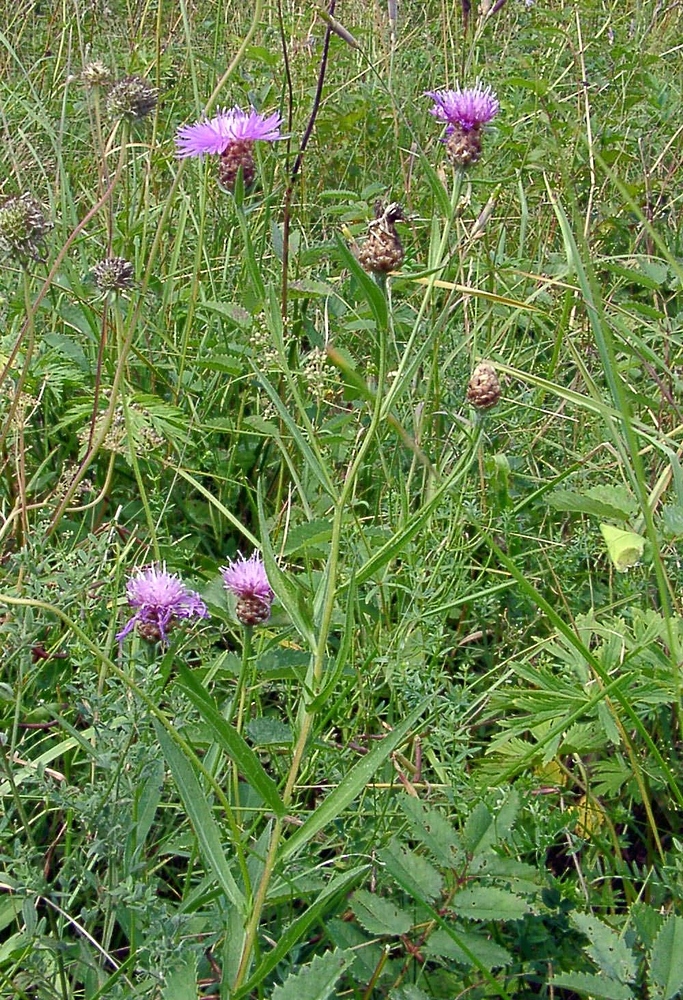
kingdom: Plantae
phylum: Tracheophyta
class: Magnoliopsida
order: Asterales
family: Asteraceae
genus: Centaurea
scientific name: Centaurea jacea
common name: Brown knapweed
